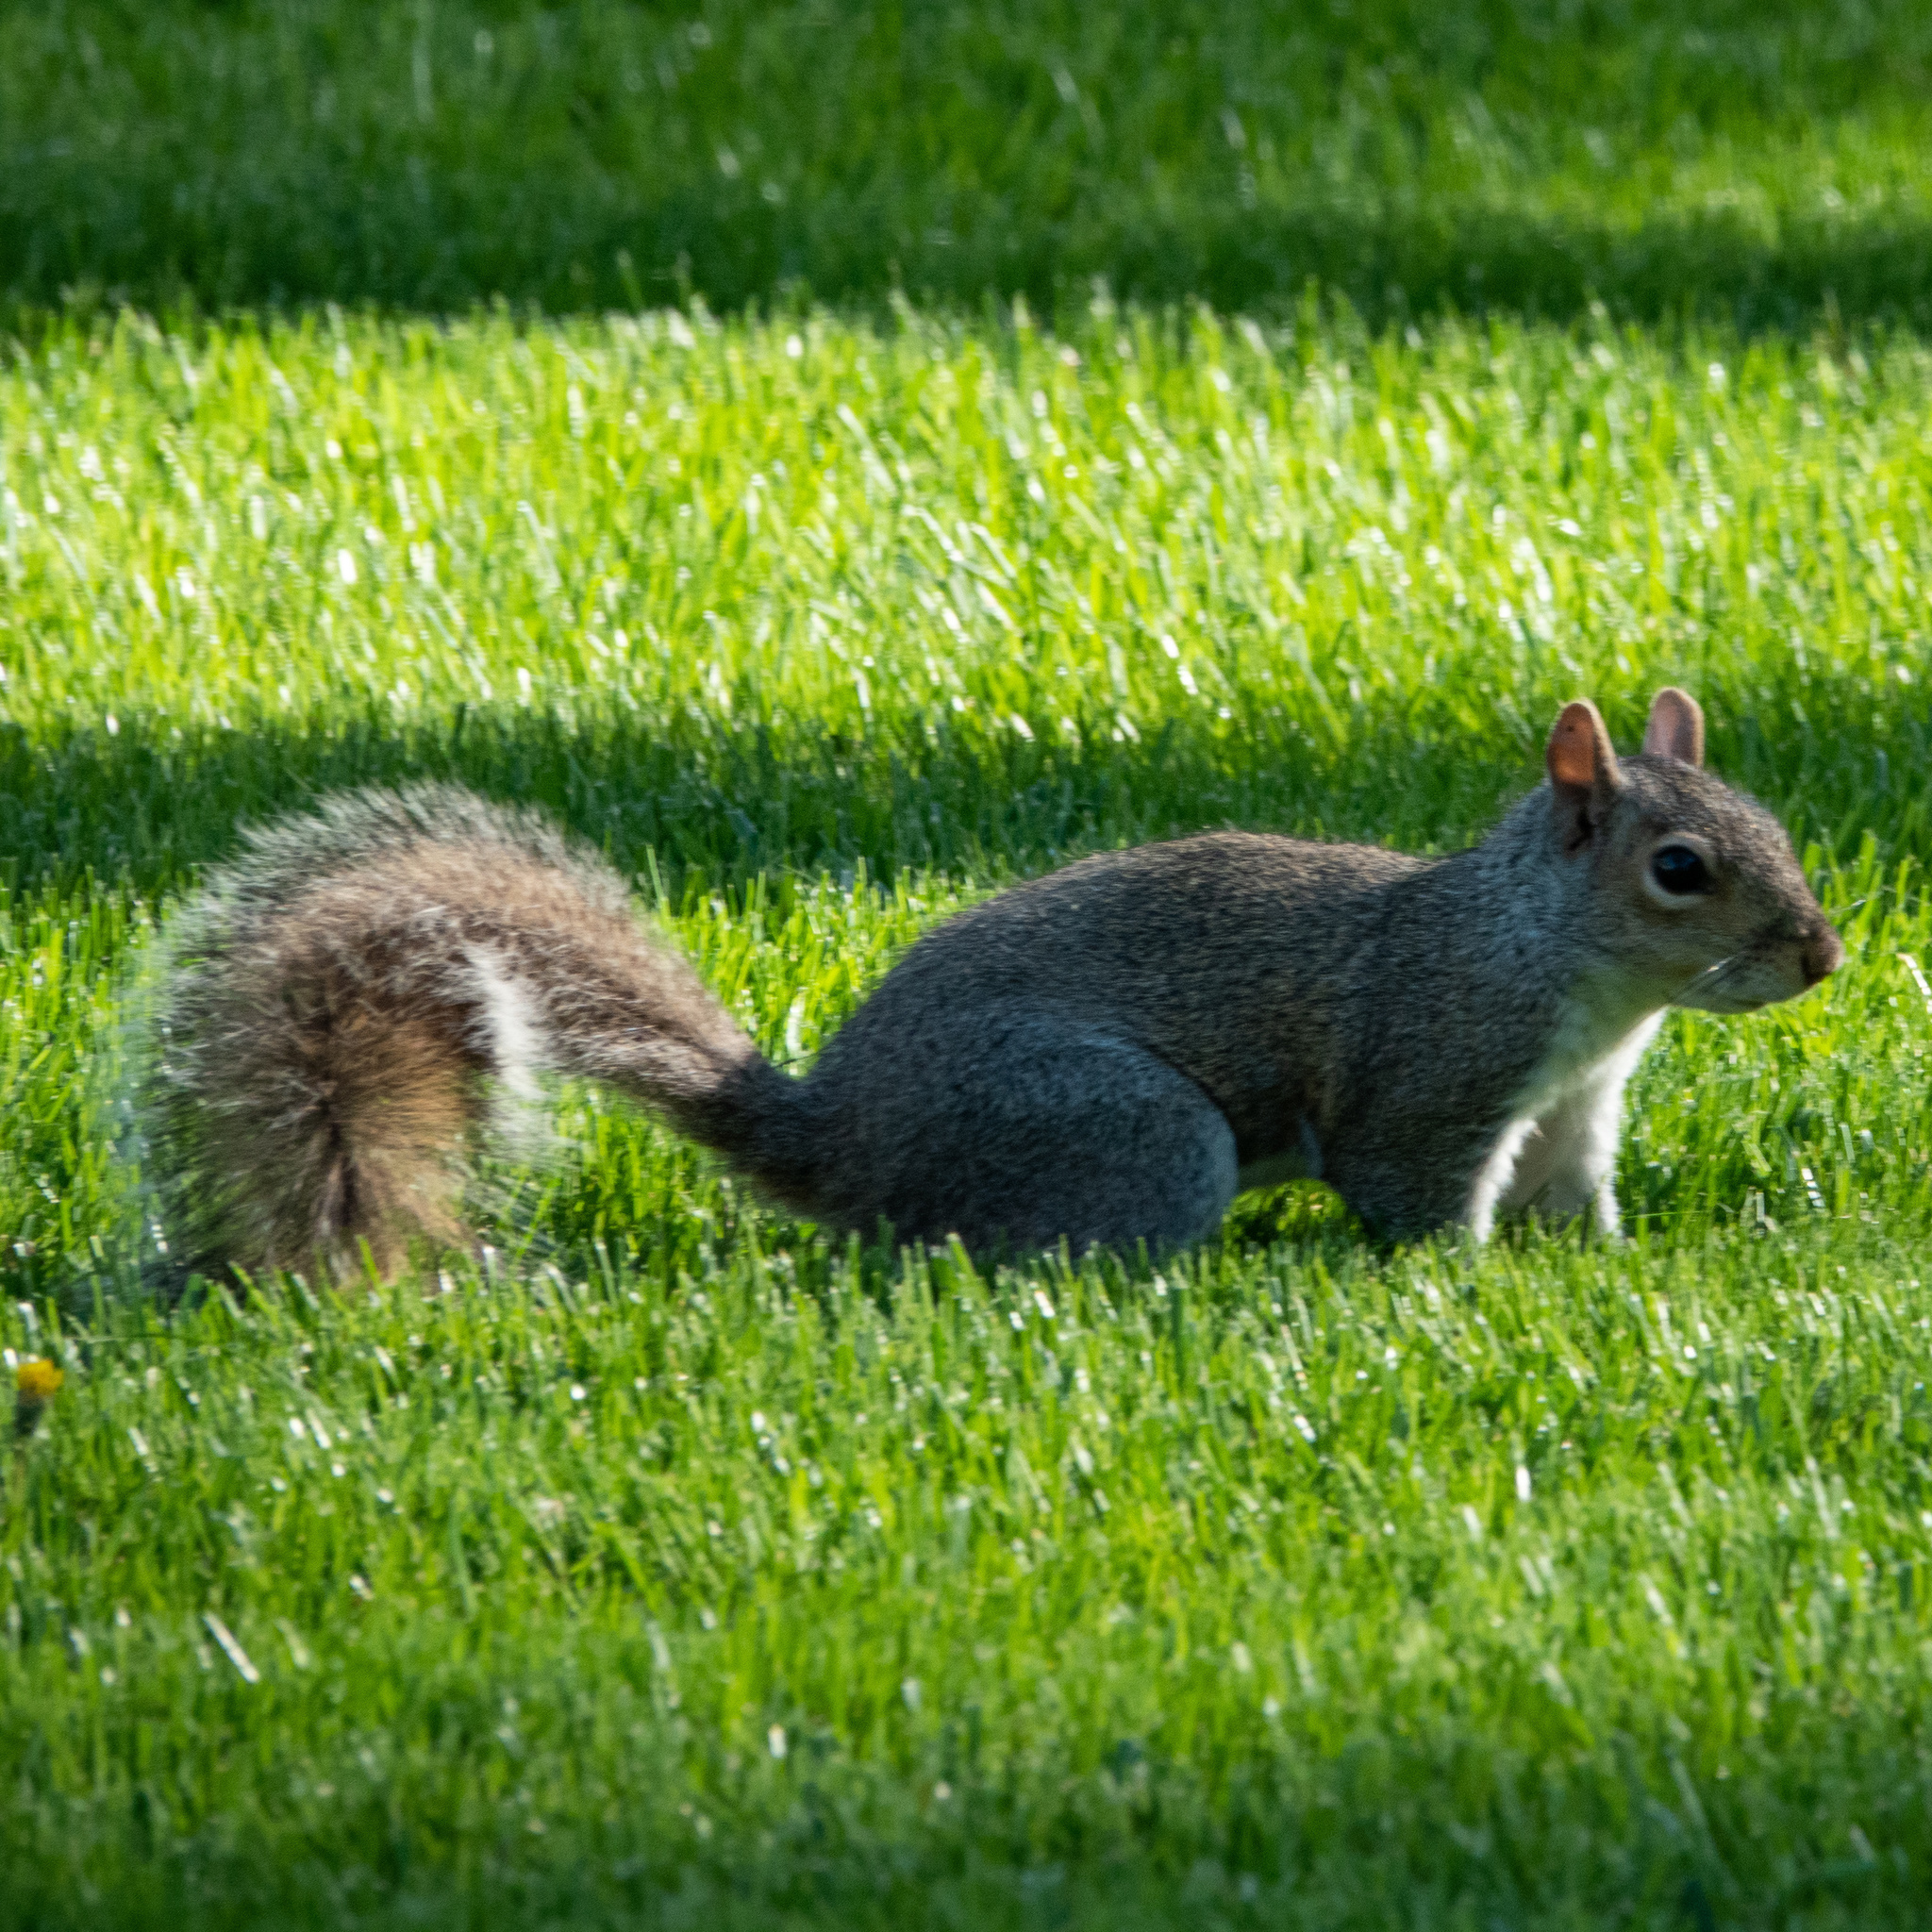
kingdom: Animalia
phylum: Chordata
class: Mammalia
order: Rodentia
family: Sciuridae
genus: Sciurus
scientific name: Sciurus carolinensis
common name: Eastern gray squirrel
